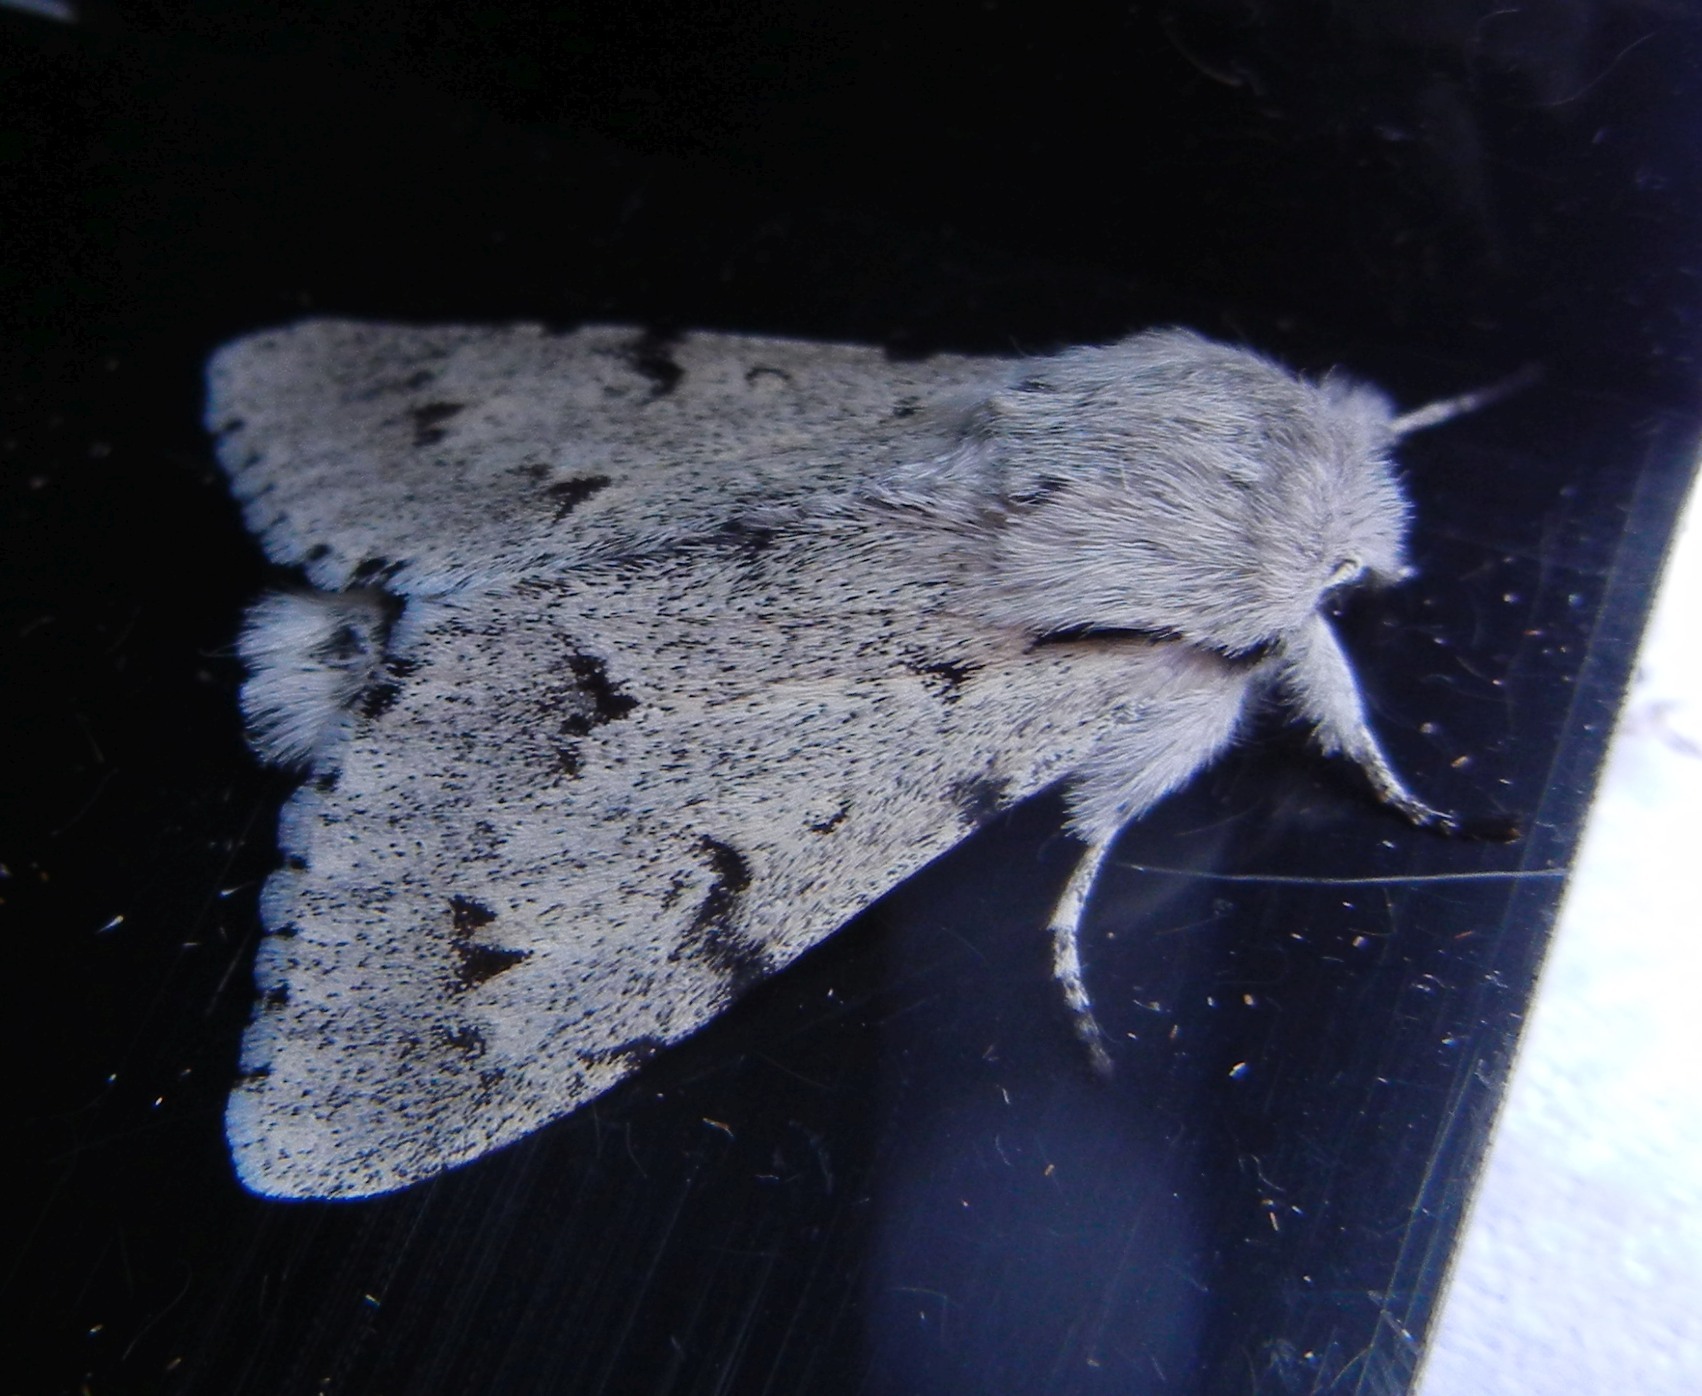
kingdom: Animalia
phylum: Arthropoda
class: Insecta
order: Lepidoptera
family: Noctuidae
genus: Acronicta
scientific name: Acronicta leporina
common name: Miller
